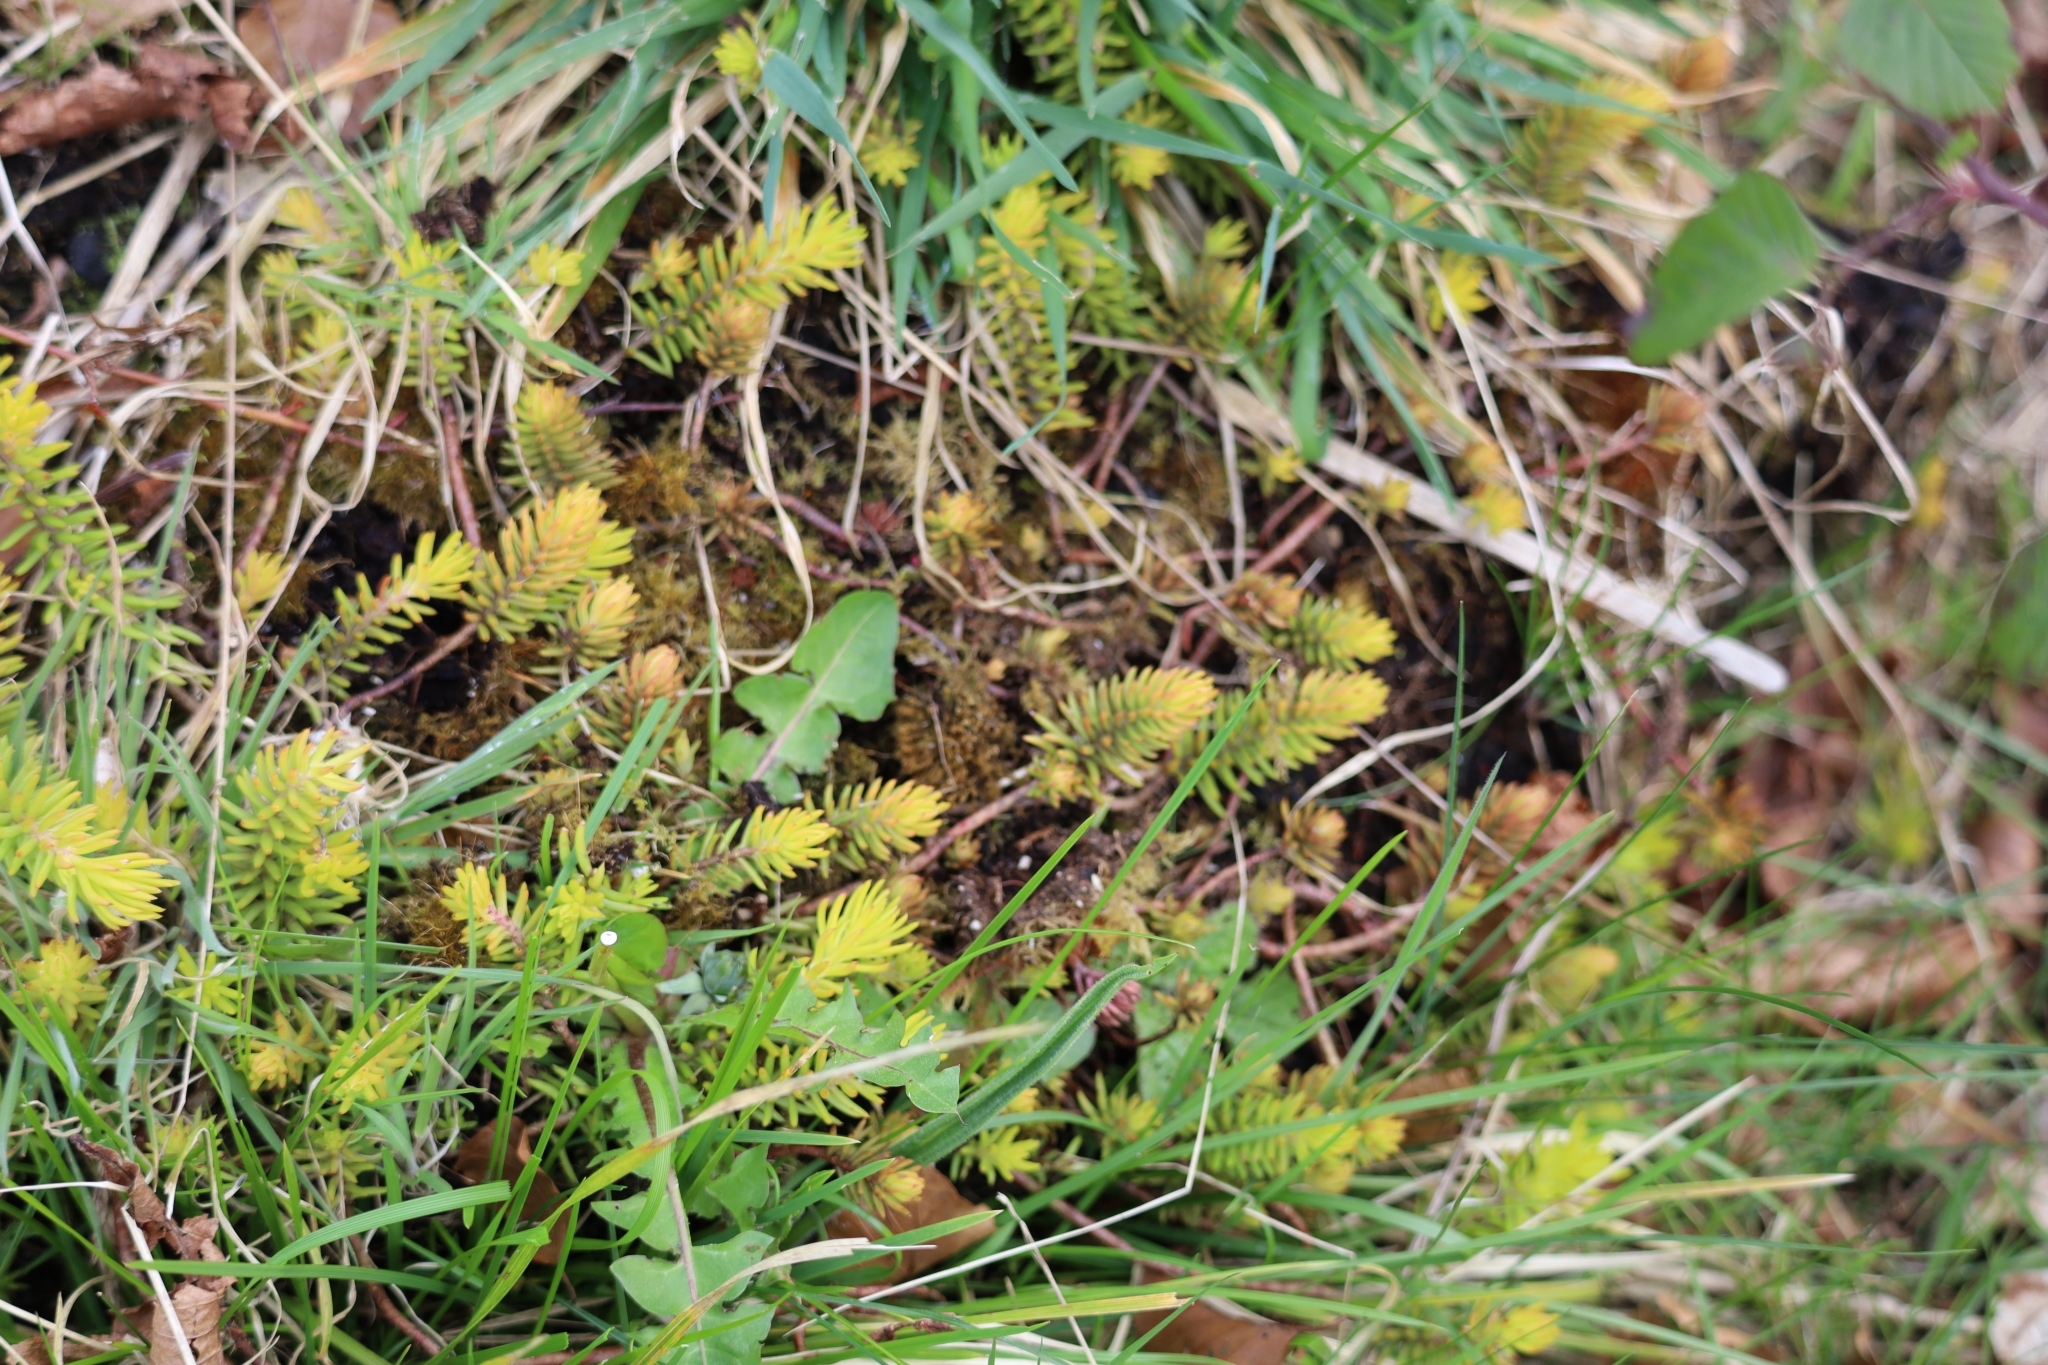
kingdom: Plantae
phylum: Tracheophyta
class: Magnoliopsida
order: Saxifragales
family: Crassulaceae
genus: Petrosedum
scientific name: Petrosedum rupestre
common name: Jenny's stonecrop
